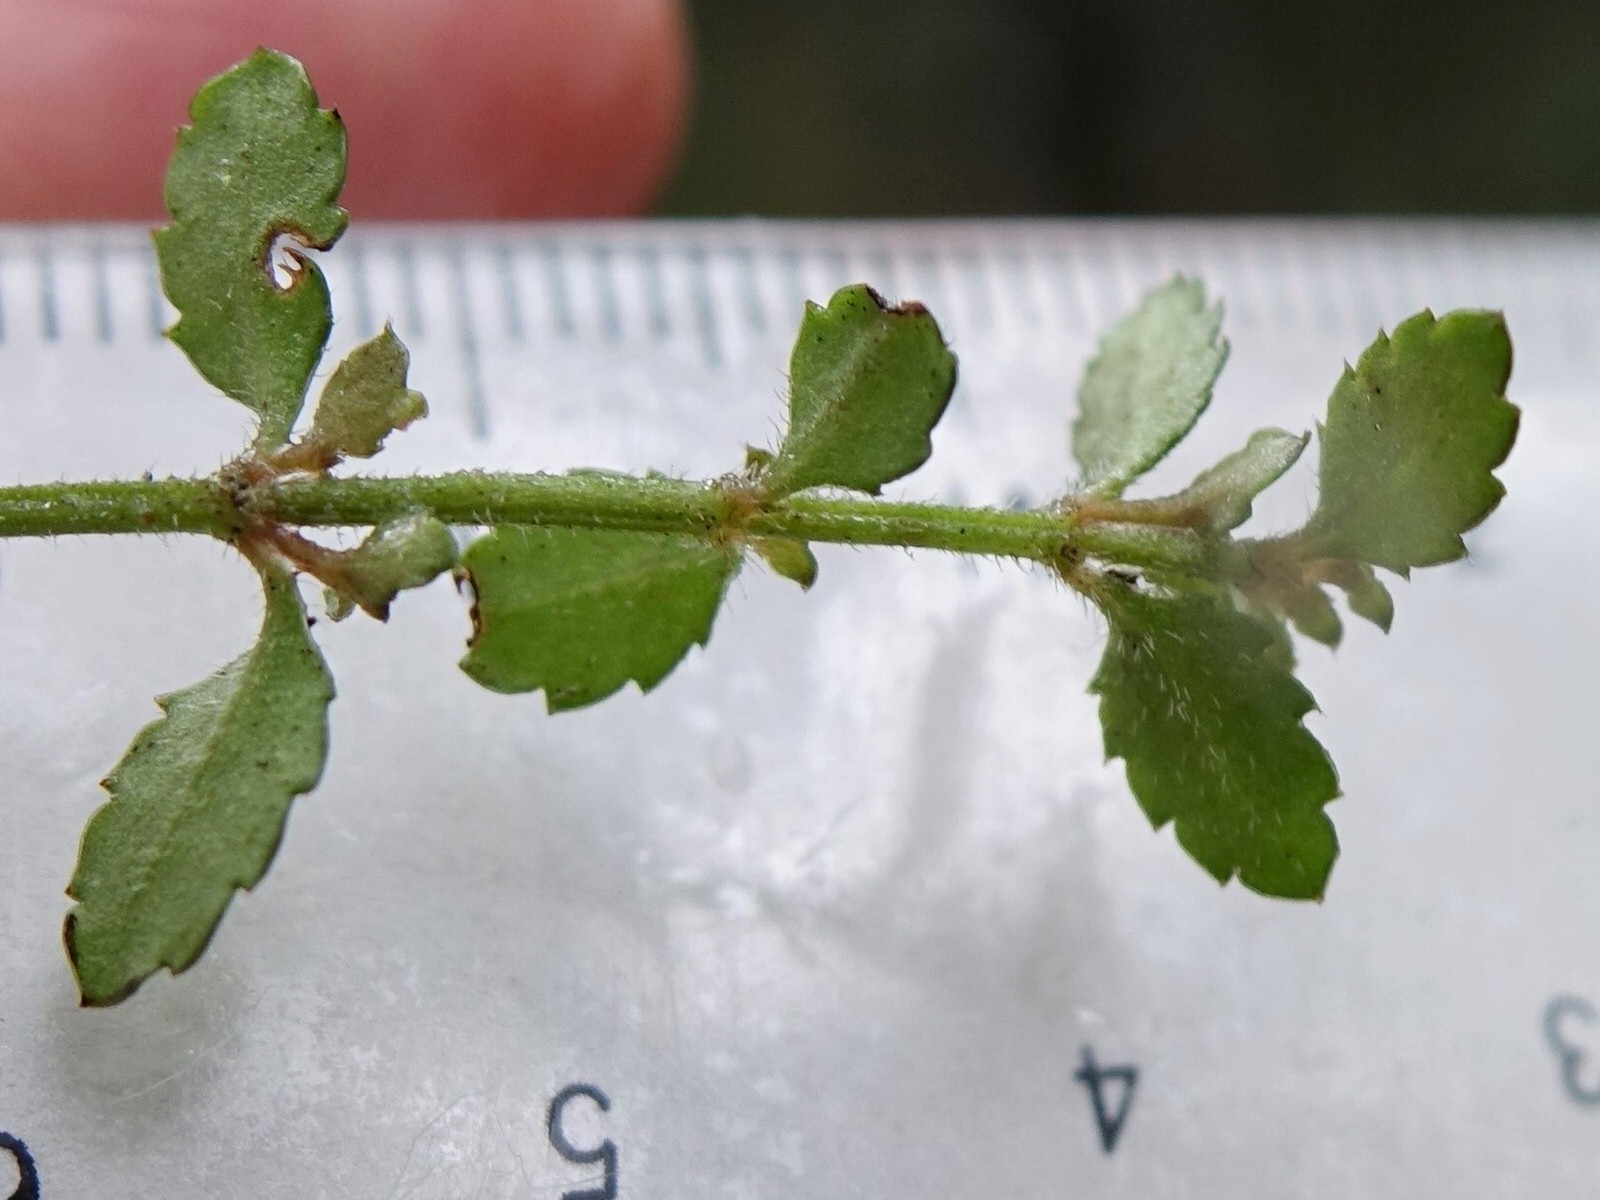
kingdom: Plantae
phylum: Tracheophyta
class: Magnoliopsida
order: Saxifragales
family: Haloragaceae
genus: Gonocarpus
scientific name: Gonocarpus aggregatus
